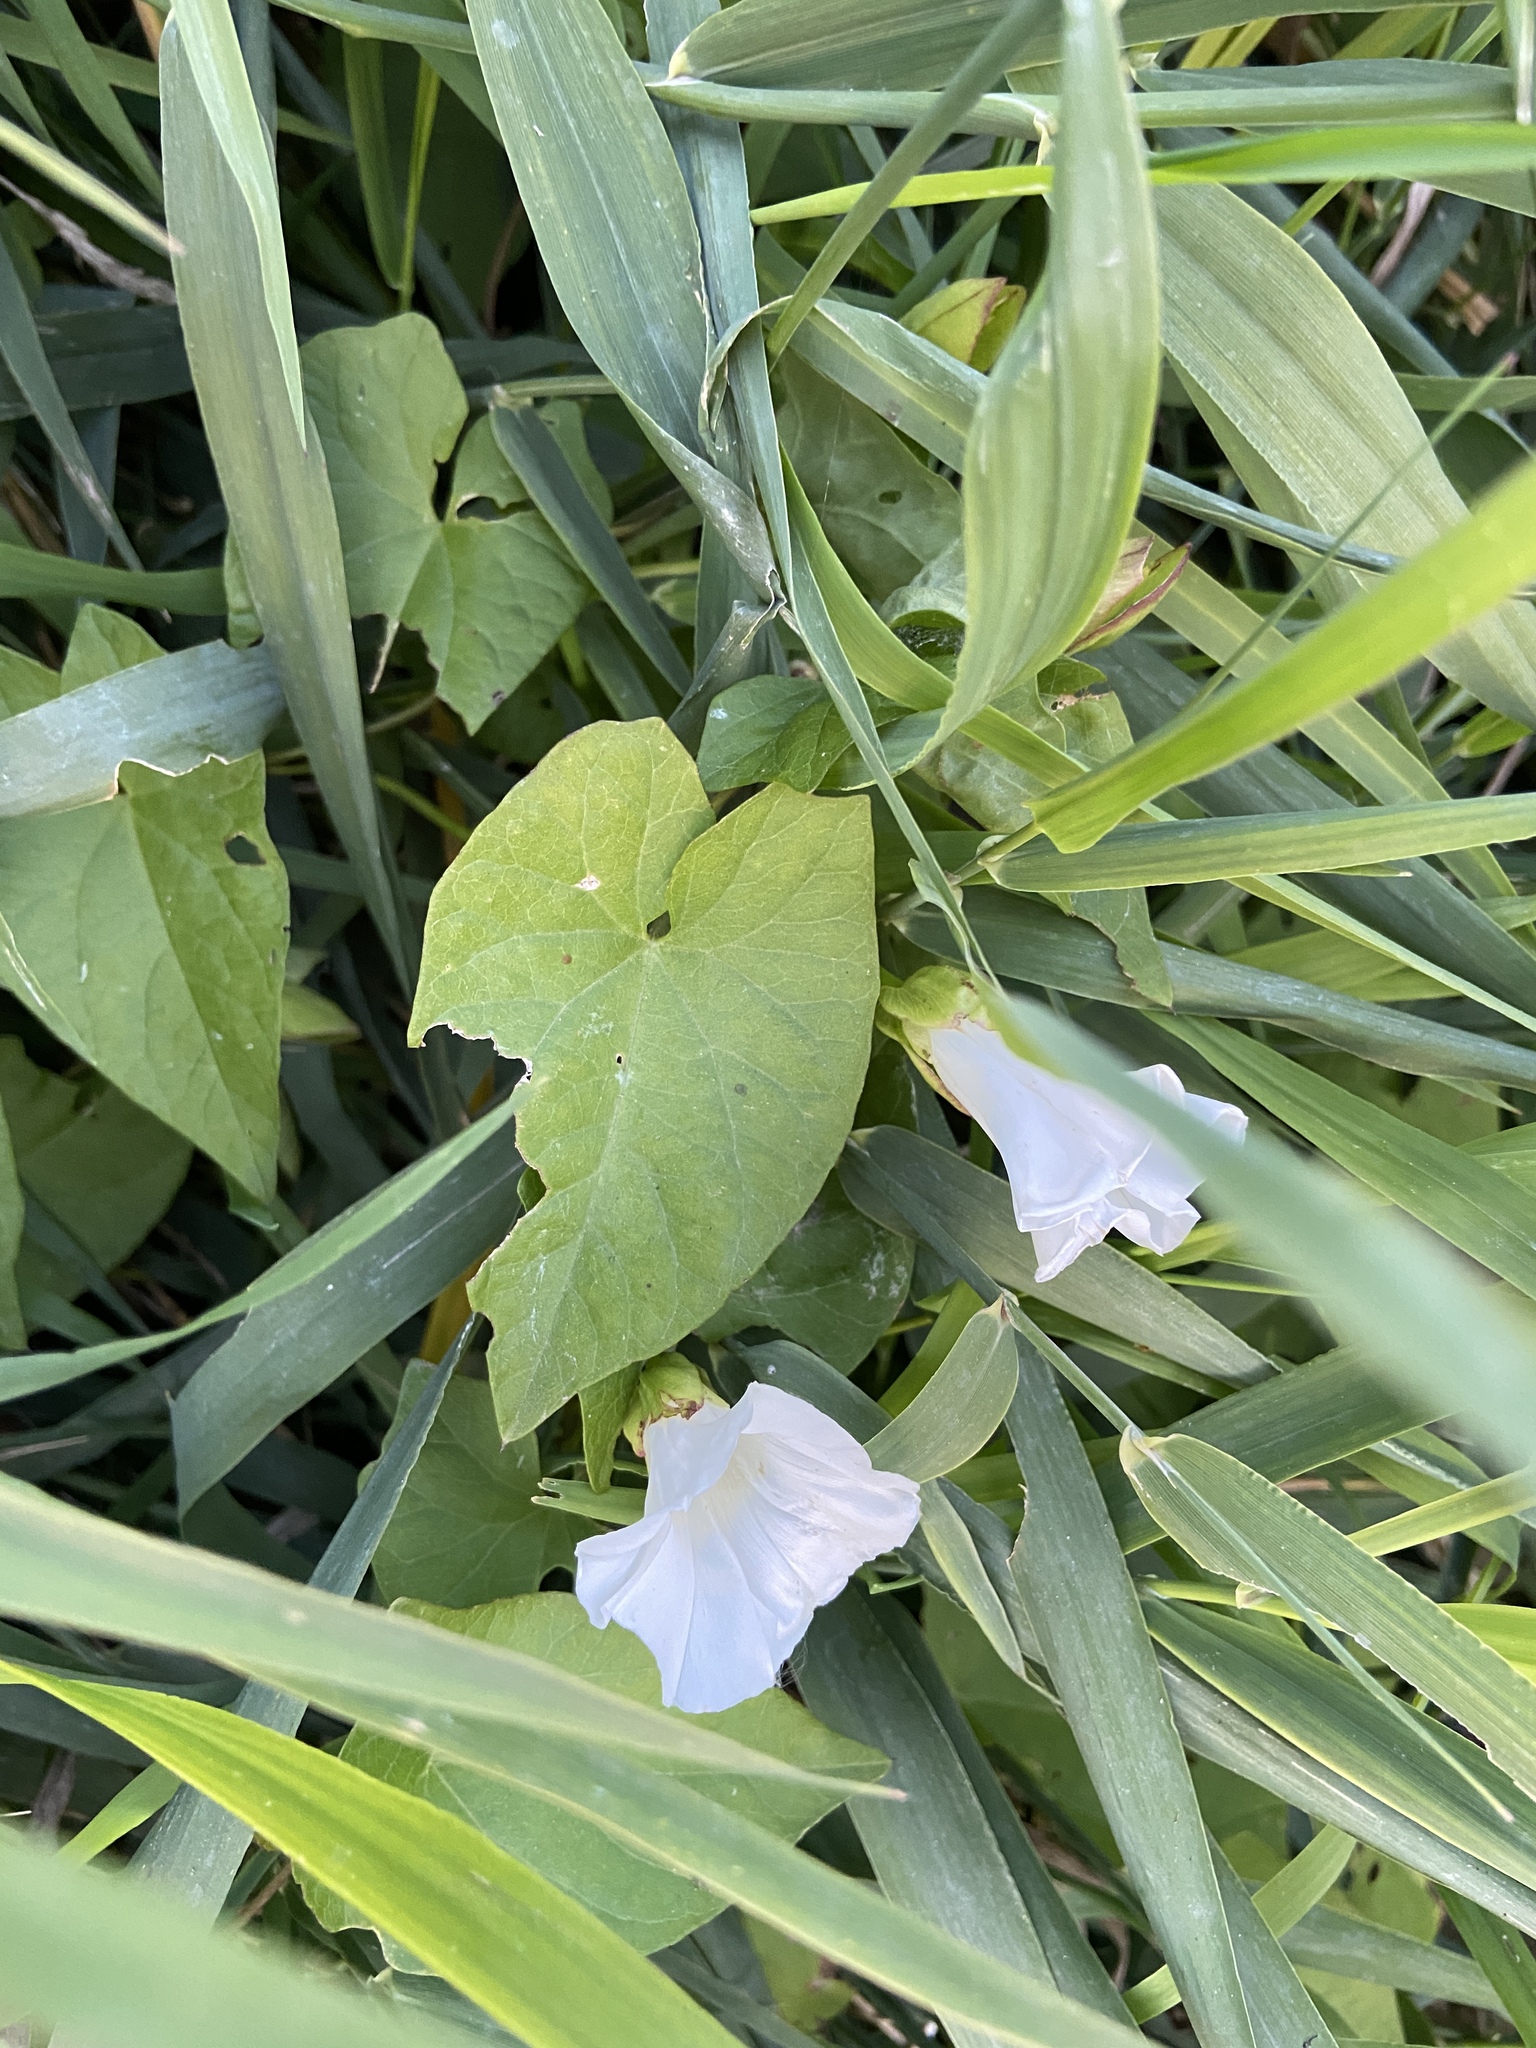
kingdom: Plantae
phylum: Tracheophyta
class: Magnoliopsida
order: Solanales
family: Convolvulaceae
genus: Calystegia
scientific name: Calystegia sepium
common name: Hedge bindweed
